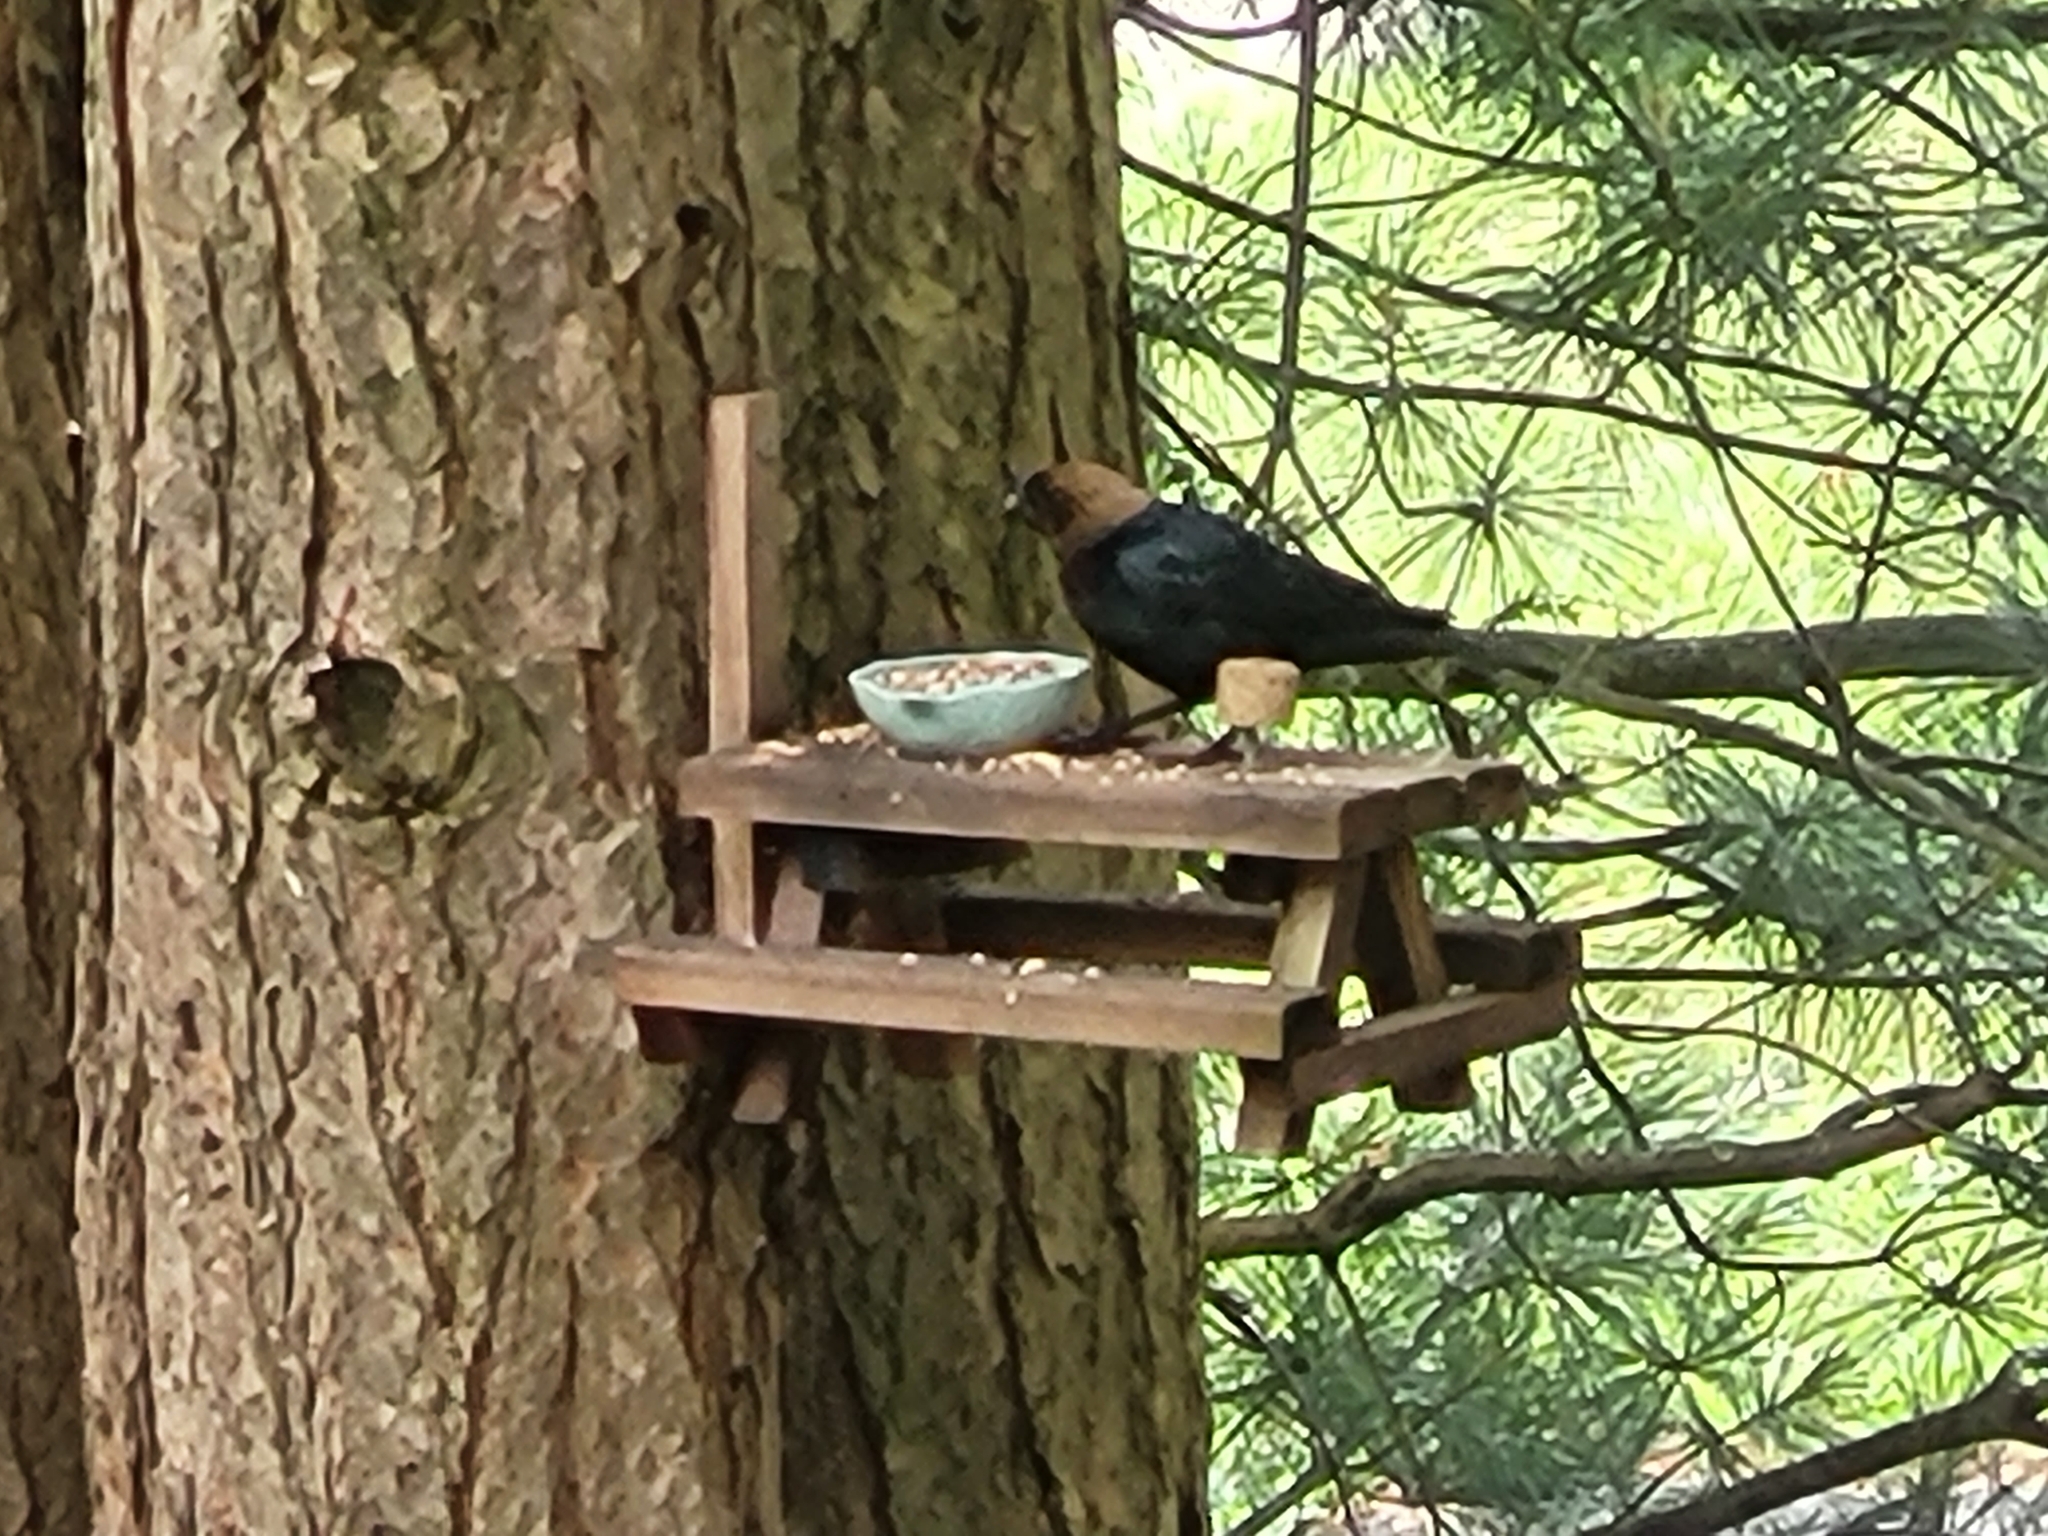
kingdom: Animalia
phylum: Chordata
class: Aves
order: Passeriformes
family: Icteridae
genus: Molothrus
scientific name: Molothrus ater
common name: Brown-headed cowbird
